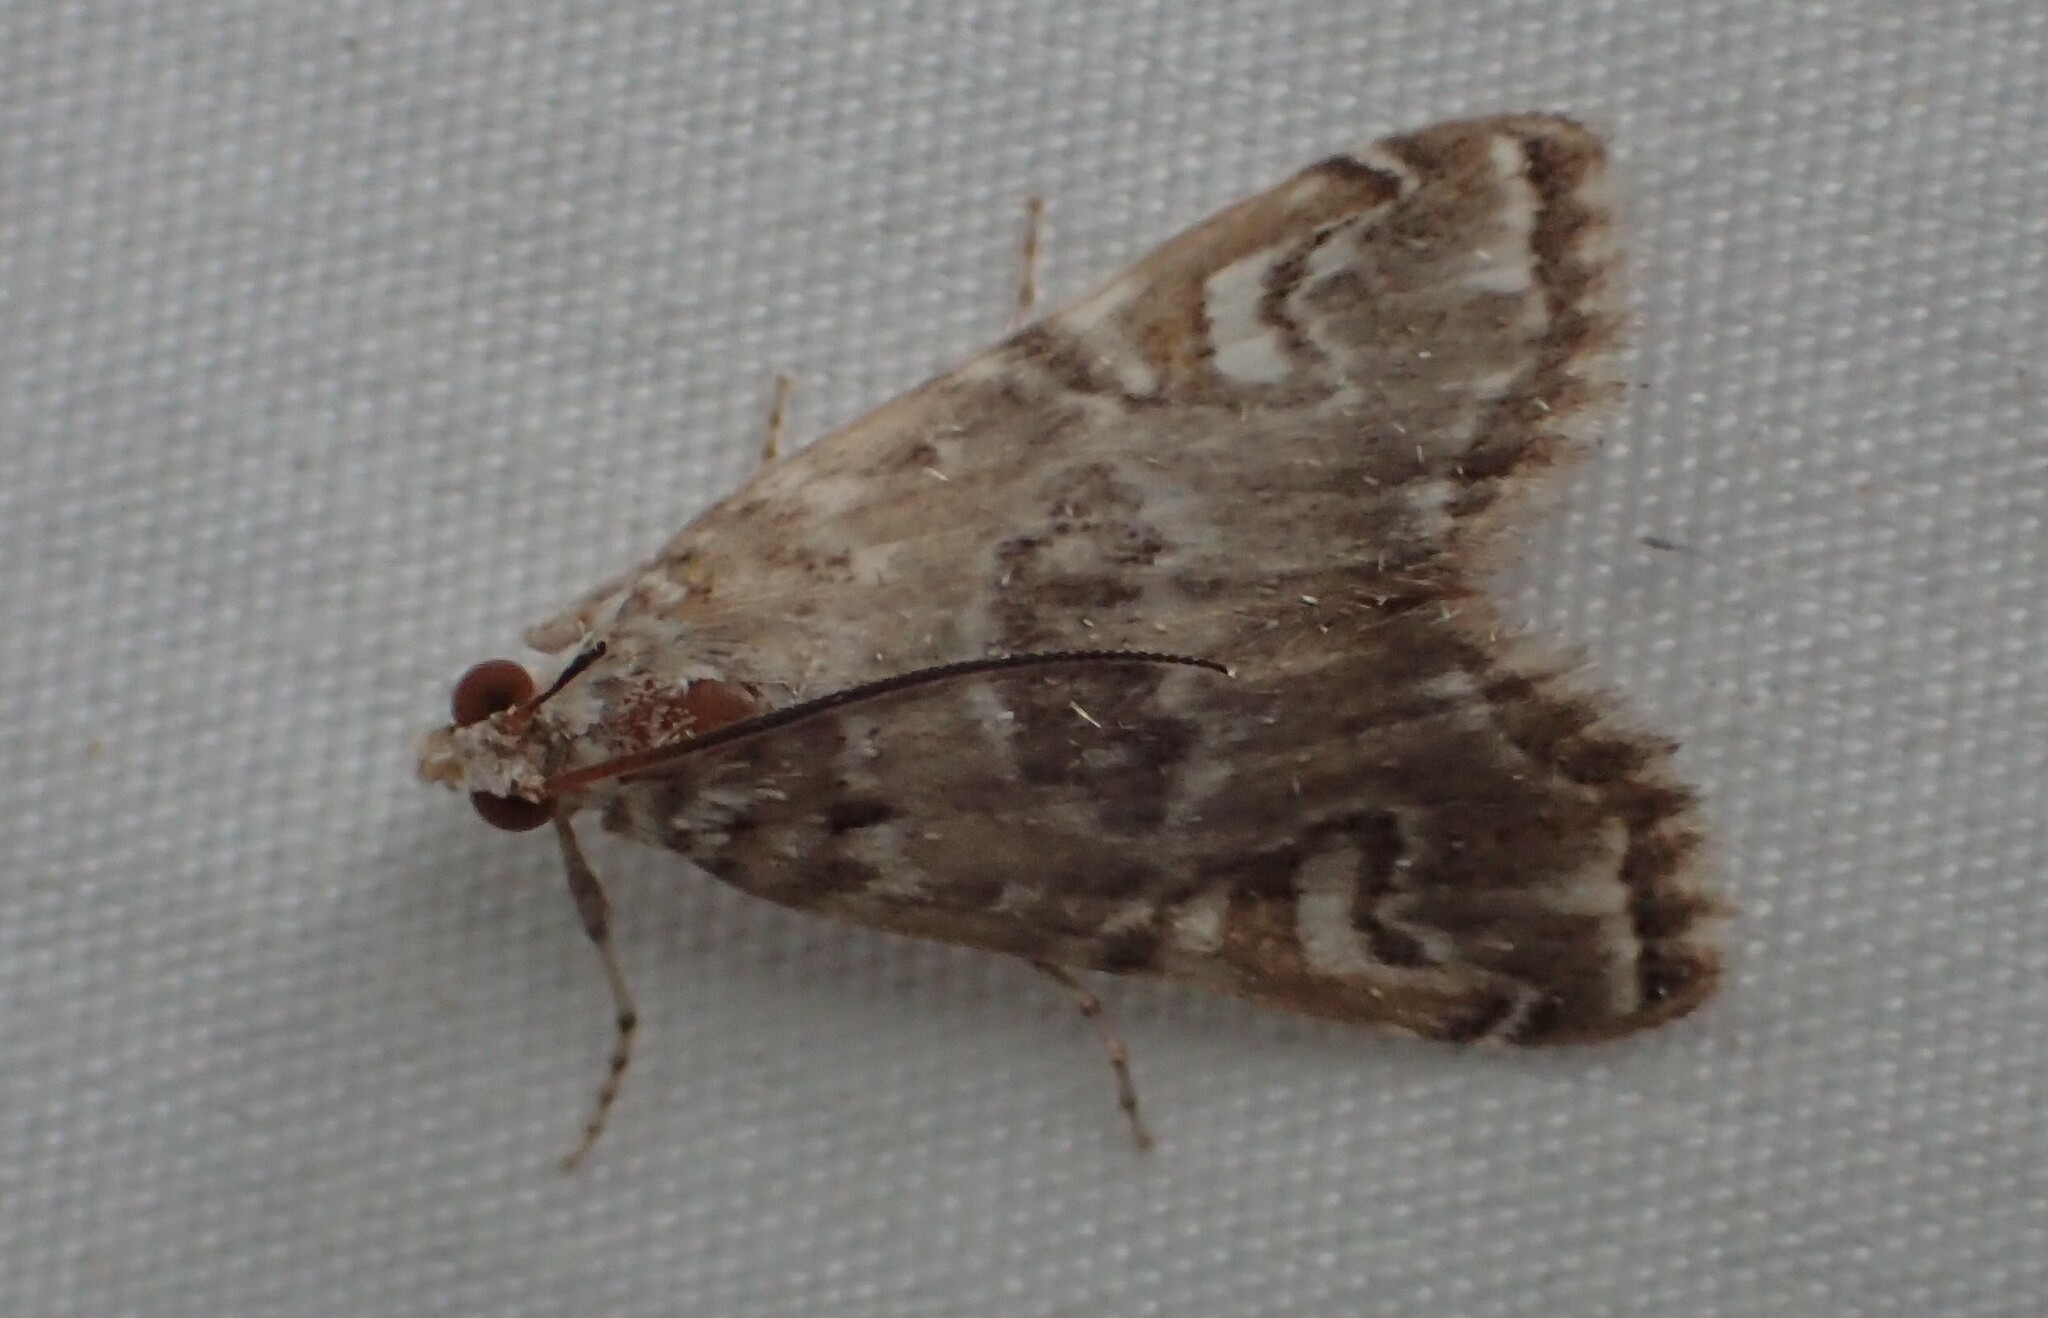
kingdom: Animalia
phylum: Arthropoda
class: Insecta
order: Lepidoptera
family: Crambidae
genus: Elophila
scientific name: Elophila gyralis
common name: Waterlily borer moth
